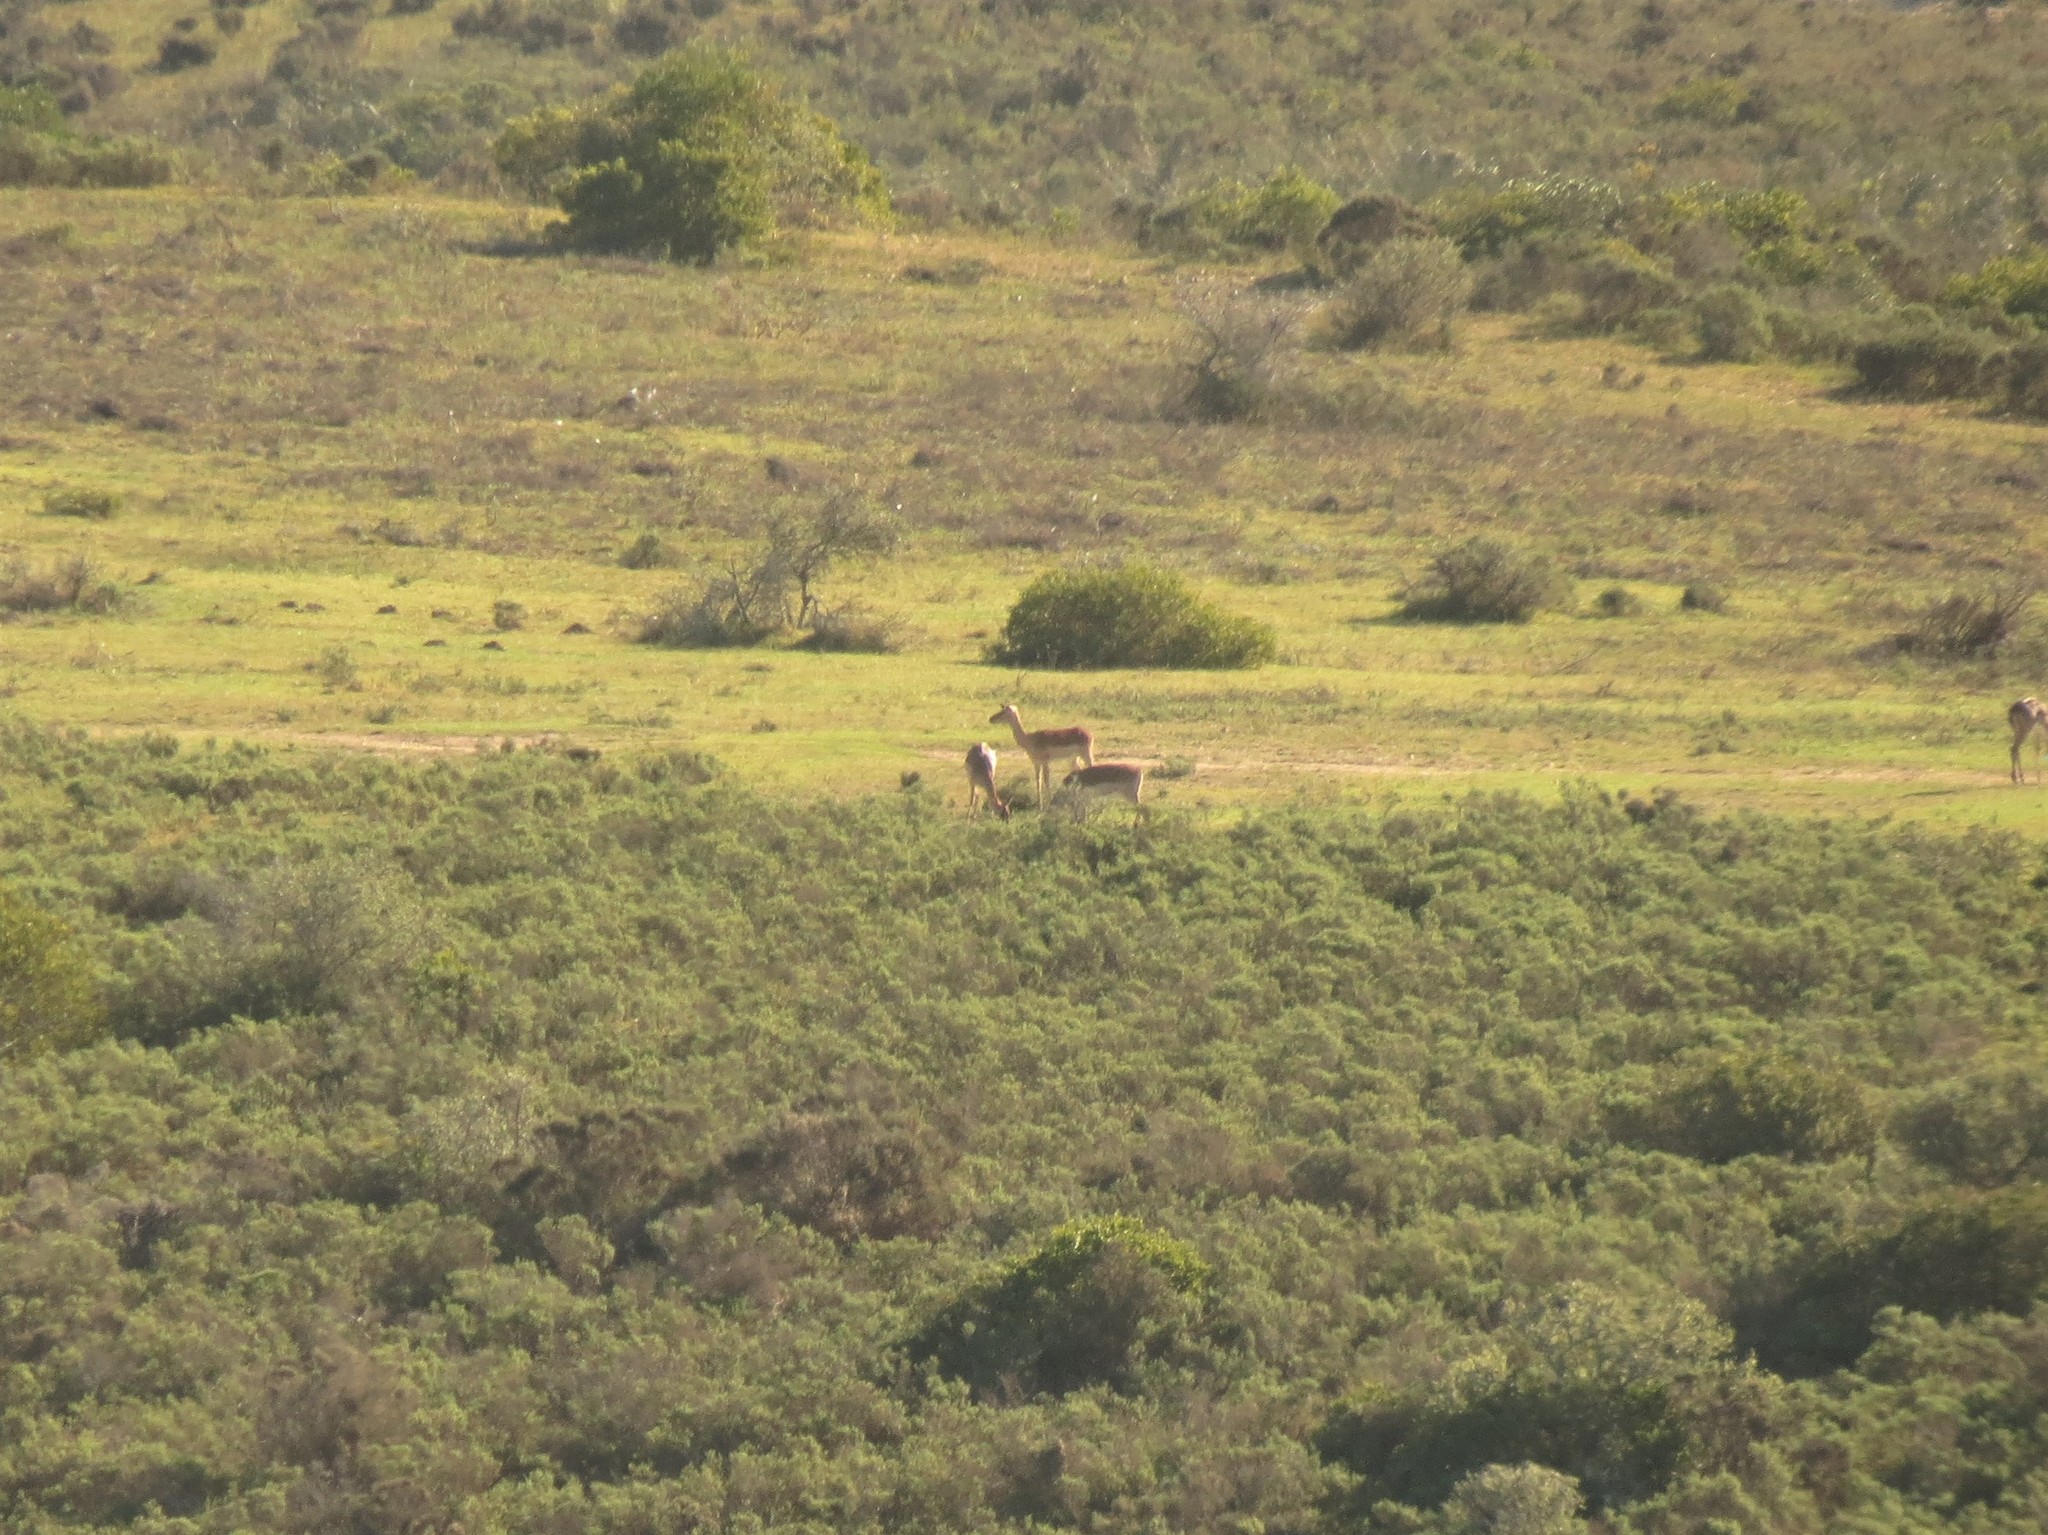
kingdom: Animalia
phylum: Chordata
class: Mammalia
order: Artiodactyla
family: Bovidae
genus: Aepyceros
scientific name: Aepyceros melampus
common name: Impala
